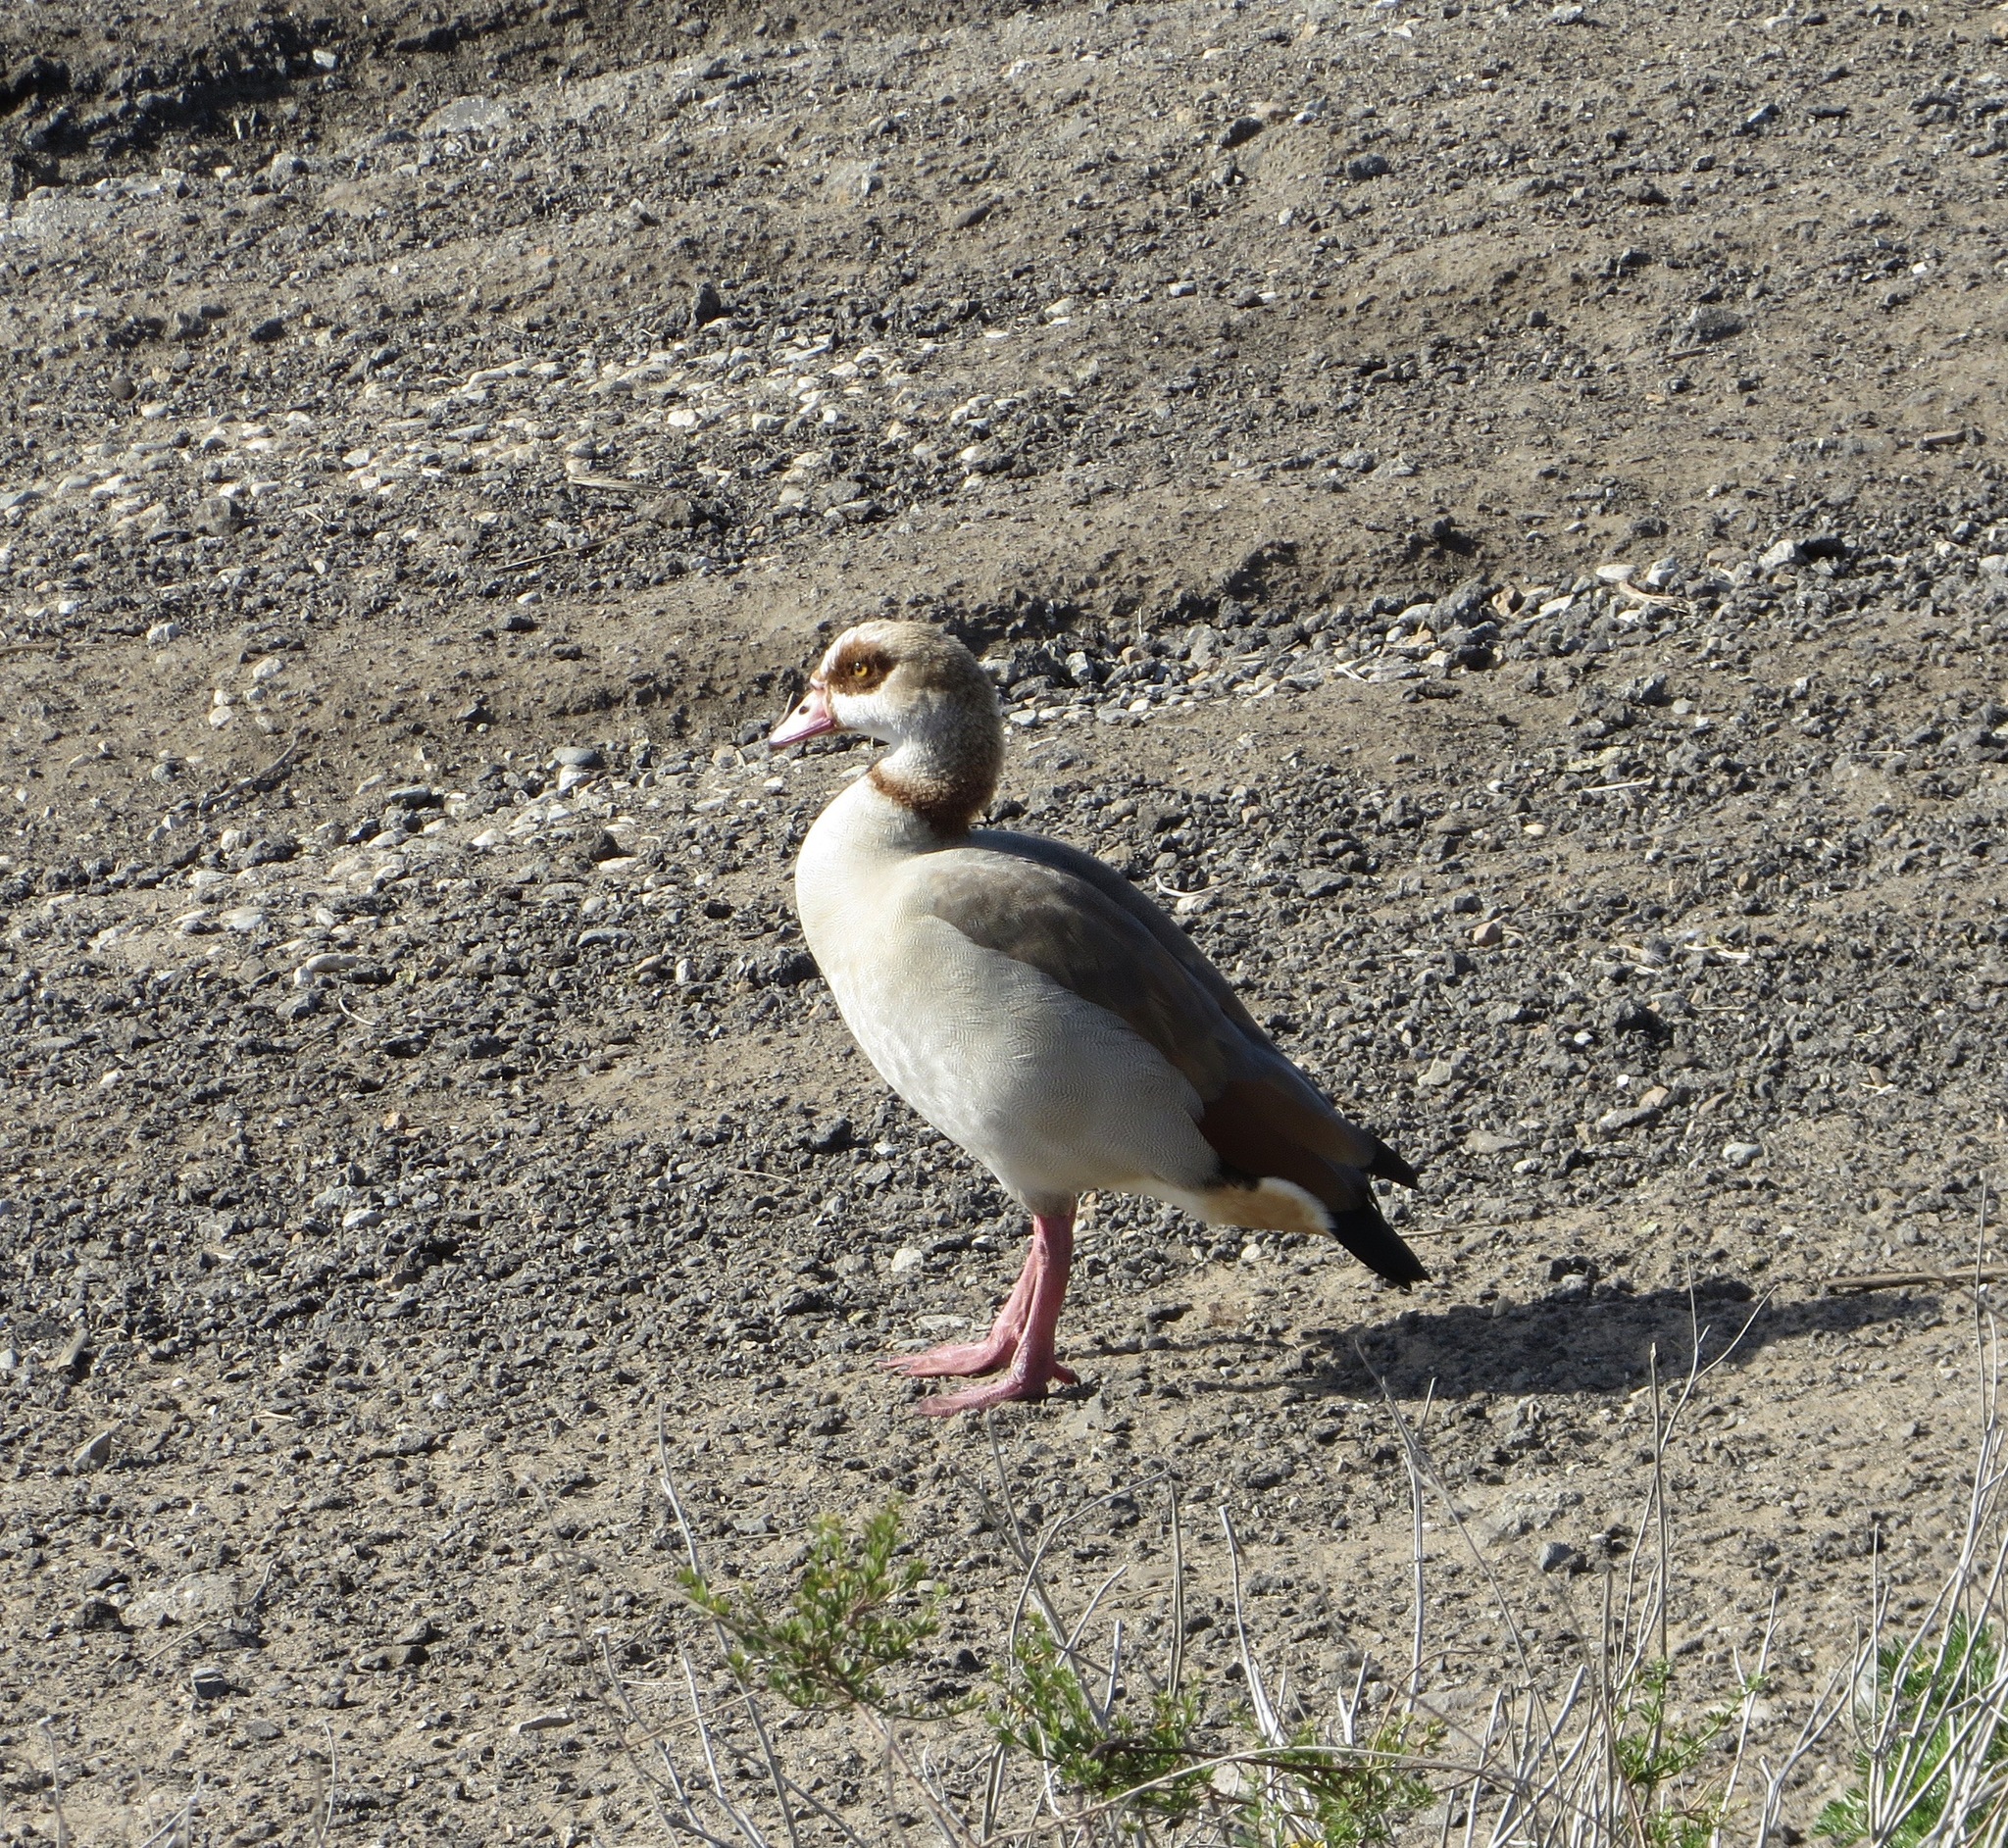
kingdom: Animalia
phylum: Chordata
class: Aves
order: Anseriformes
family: Anatidae
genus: Alopochen
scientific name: Alopochen aegyptiaca
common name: Egyptian goose
